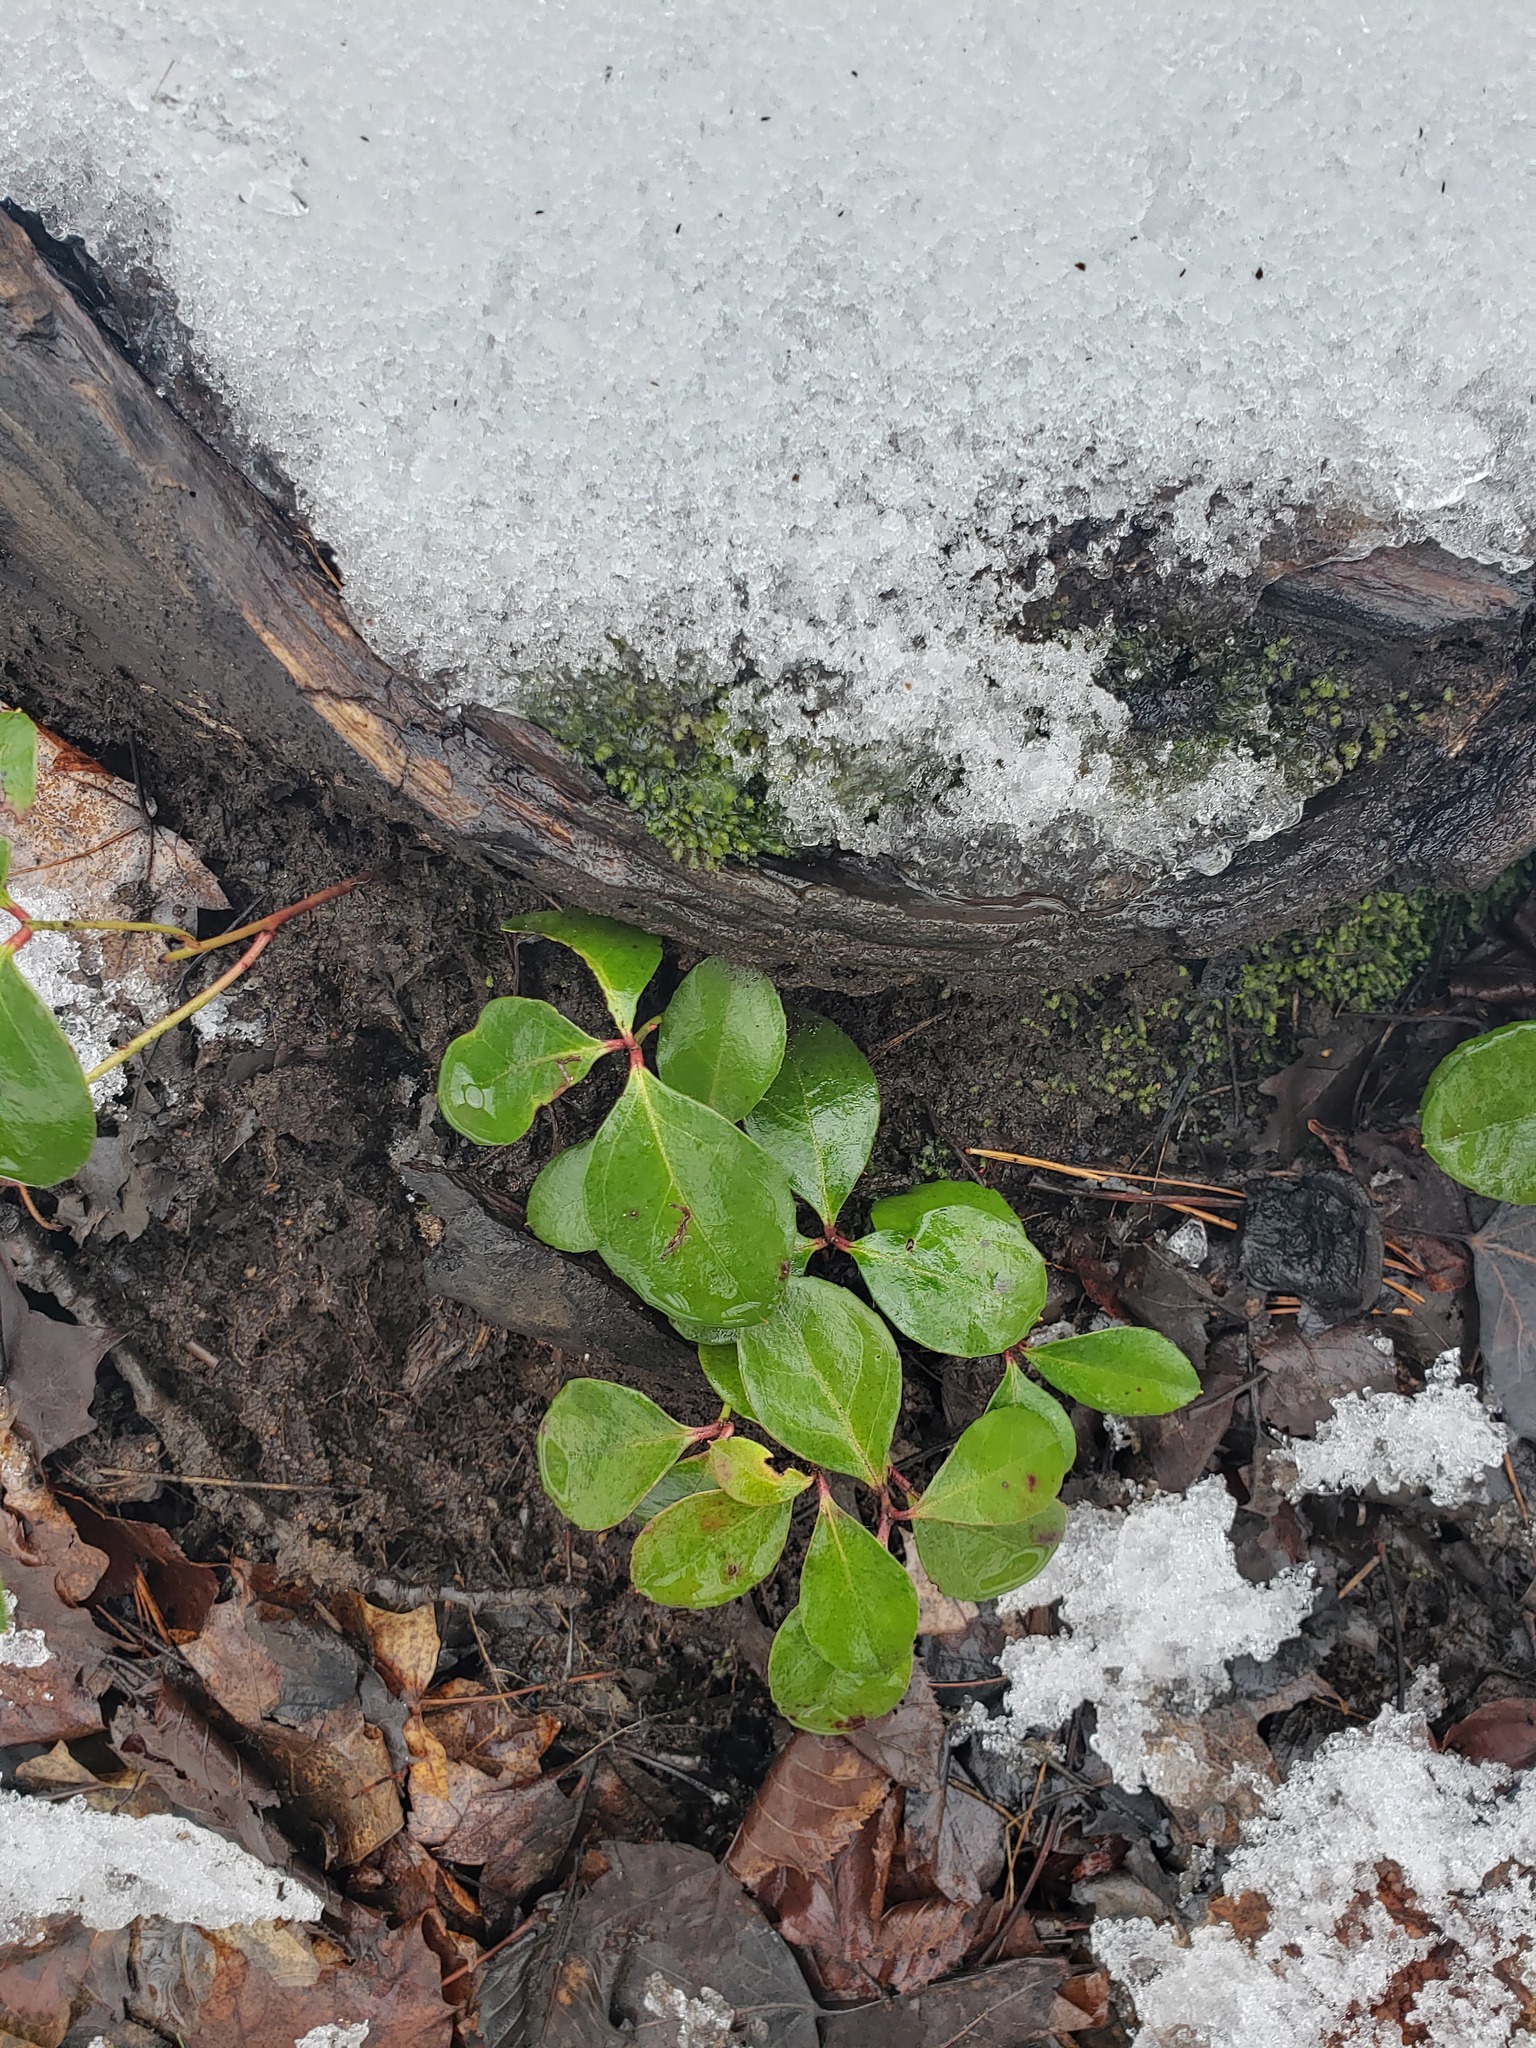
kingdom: Plantae
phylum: Tracheophyta
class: Magnoliopsida
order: Ericales
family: Ericaceae
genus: Gaultheria
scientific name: Gaultheria procumbens
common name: Checkerberry
